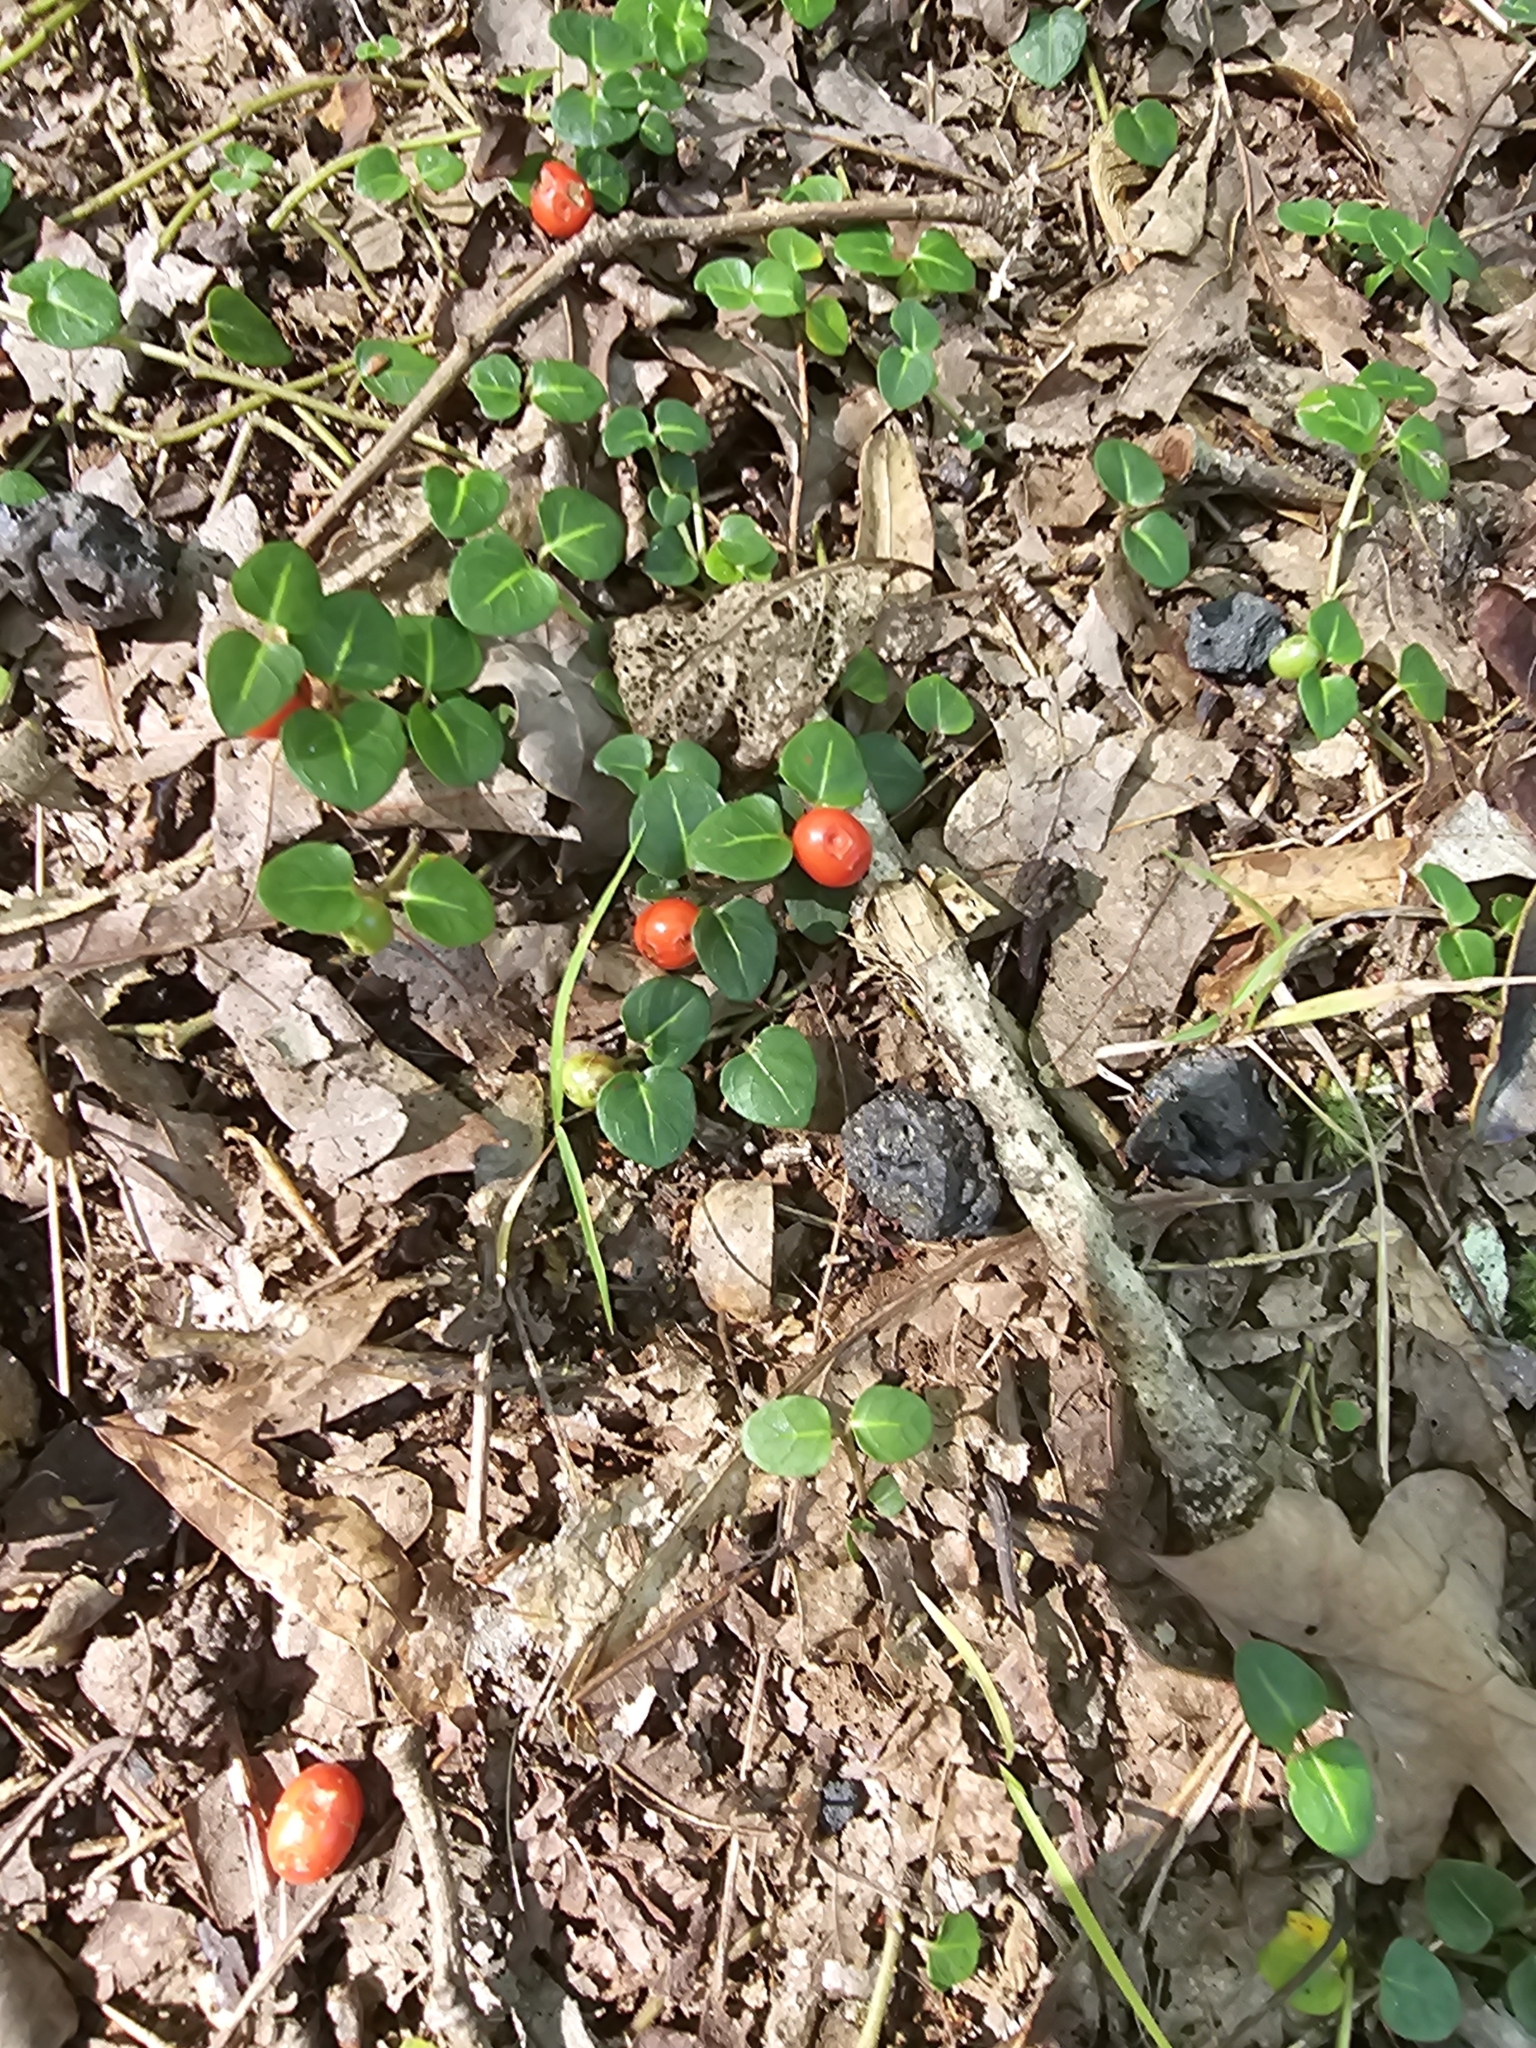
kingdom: Plantae
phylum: Tracheophyta
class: Magnoliopsida
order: Gentianales
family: Rubiaceae
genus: Mitchella
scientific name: Mitchella repens
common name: Partridge-berry
